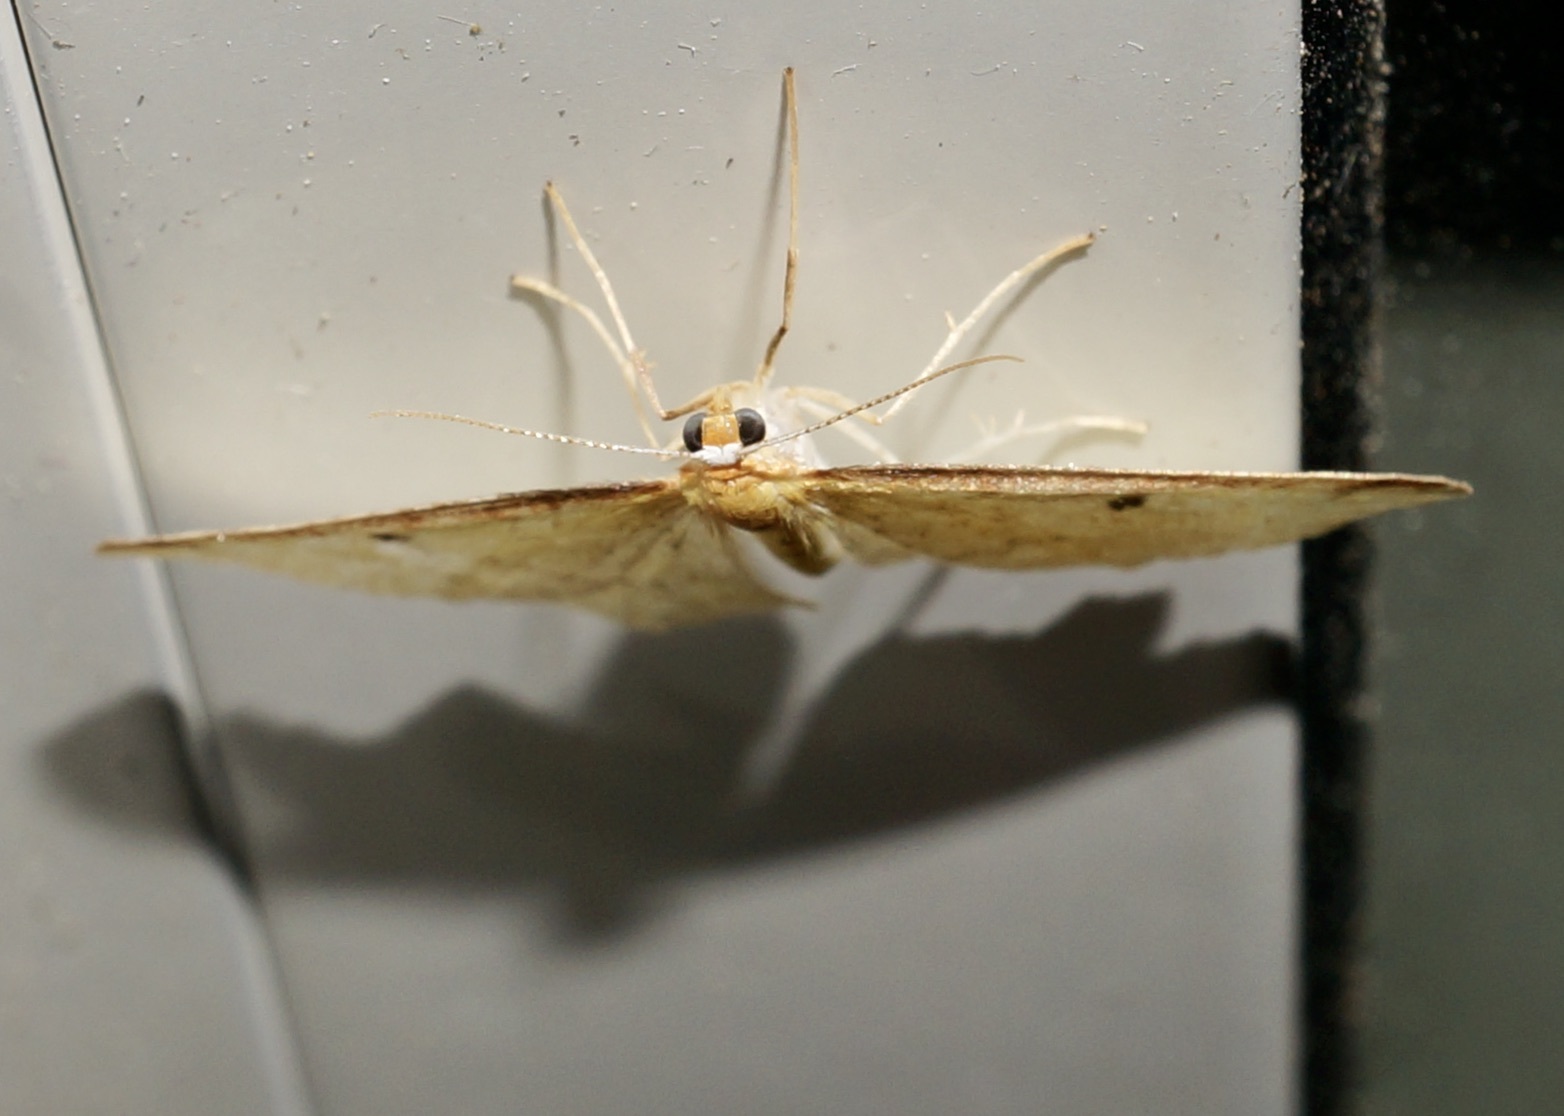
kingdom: Animalia
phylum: Arthropoda
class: Insecta
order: Lepidoptera
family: Geometridae
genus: Epiphryne
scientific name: Epiphryne undosata
